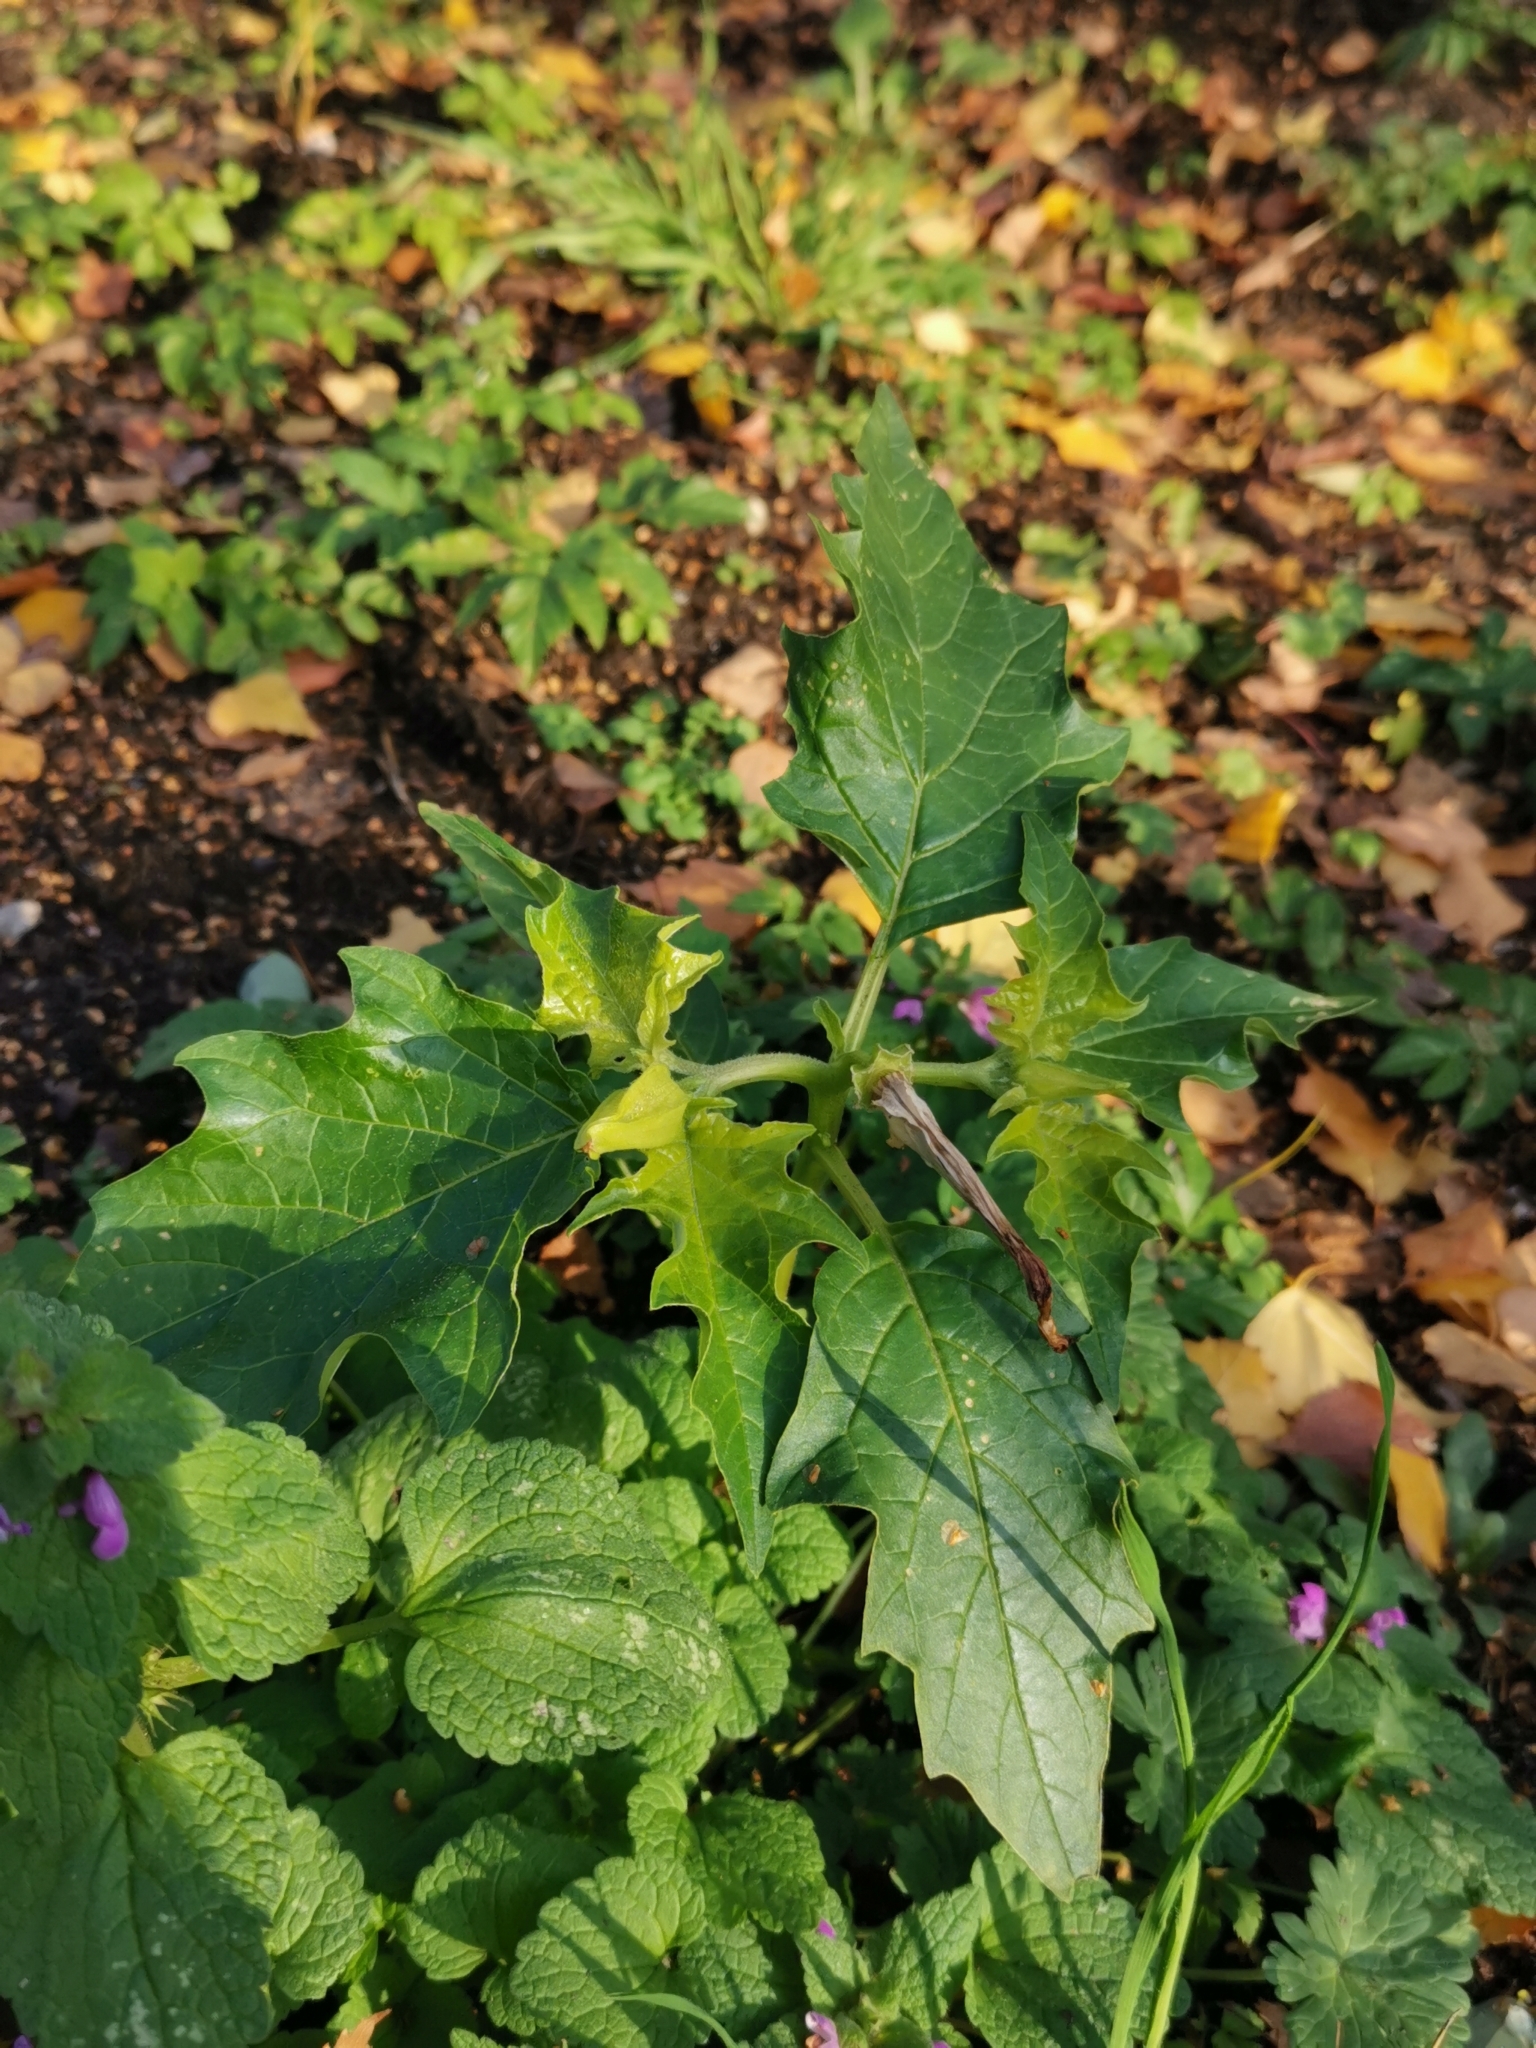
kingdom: Plantae
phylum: Tracheophyta
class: Magnoliopsida
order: Solanales
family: Solanaceae
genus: Datura
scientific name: Datura stramonium
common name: Thorn-apple
